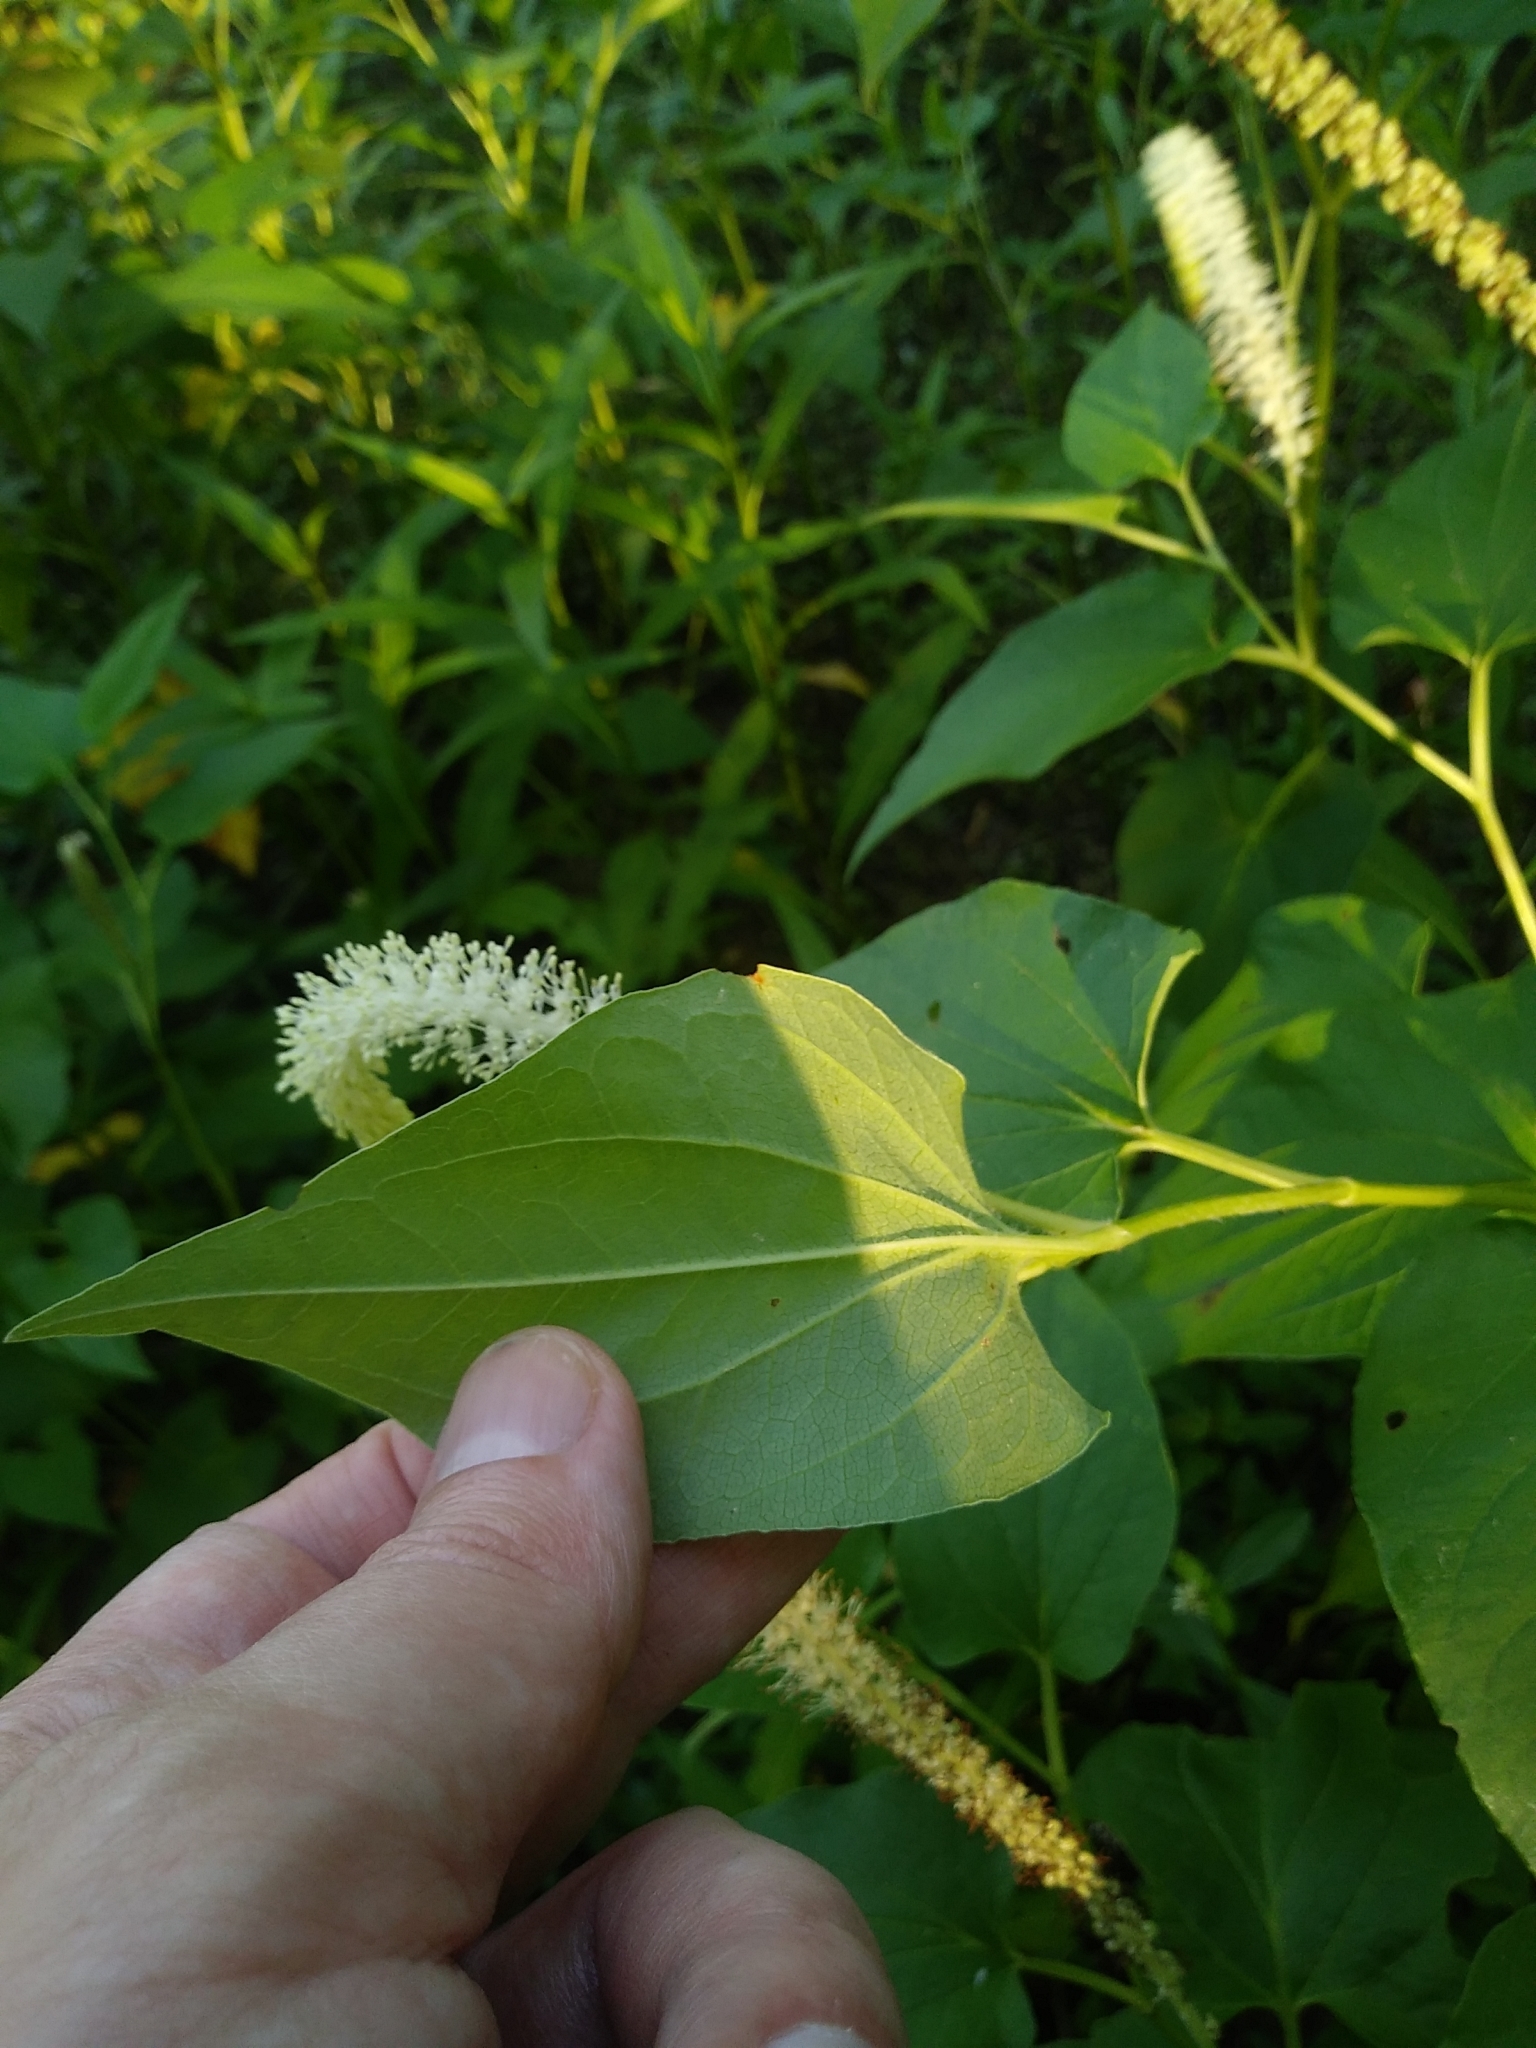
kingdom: Plantae
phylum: Tracheophyta
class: Magnoliopsida
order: Piperales
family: Saururaceae
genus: Saururus
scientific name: Saururus cernuus
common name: Lizard's-tail
